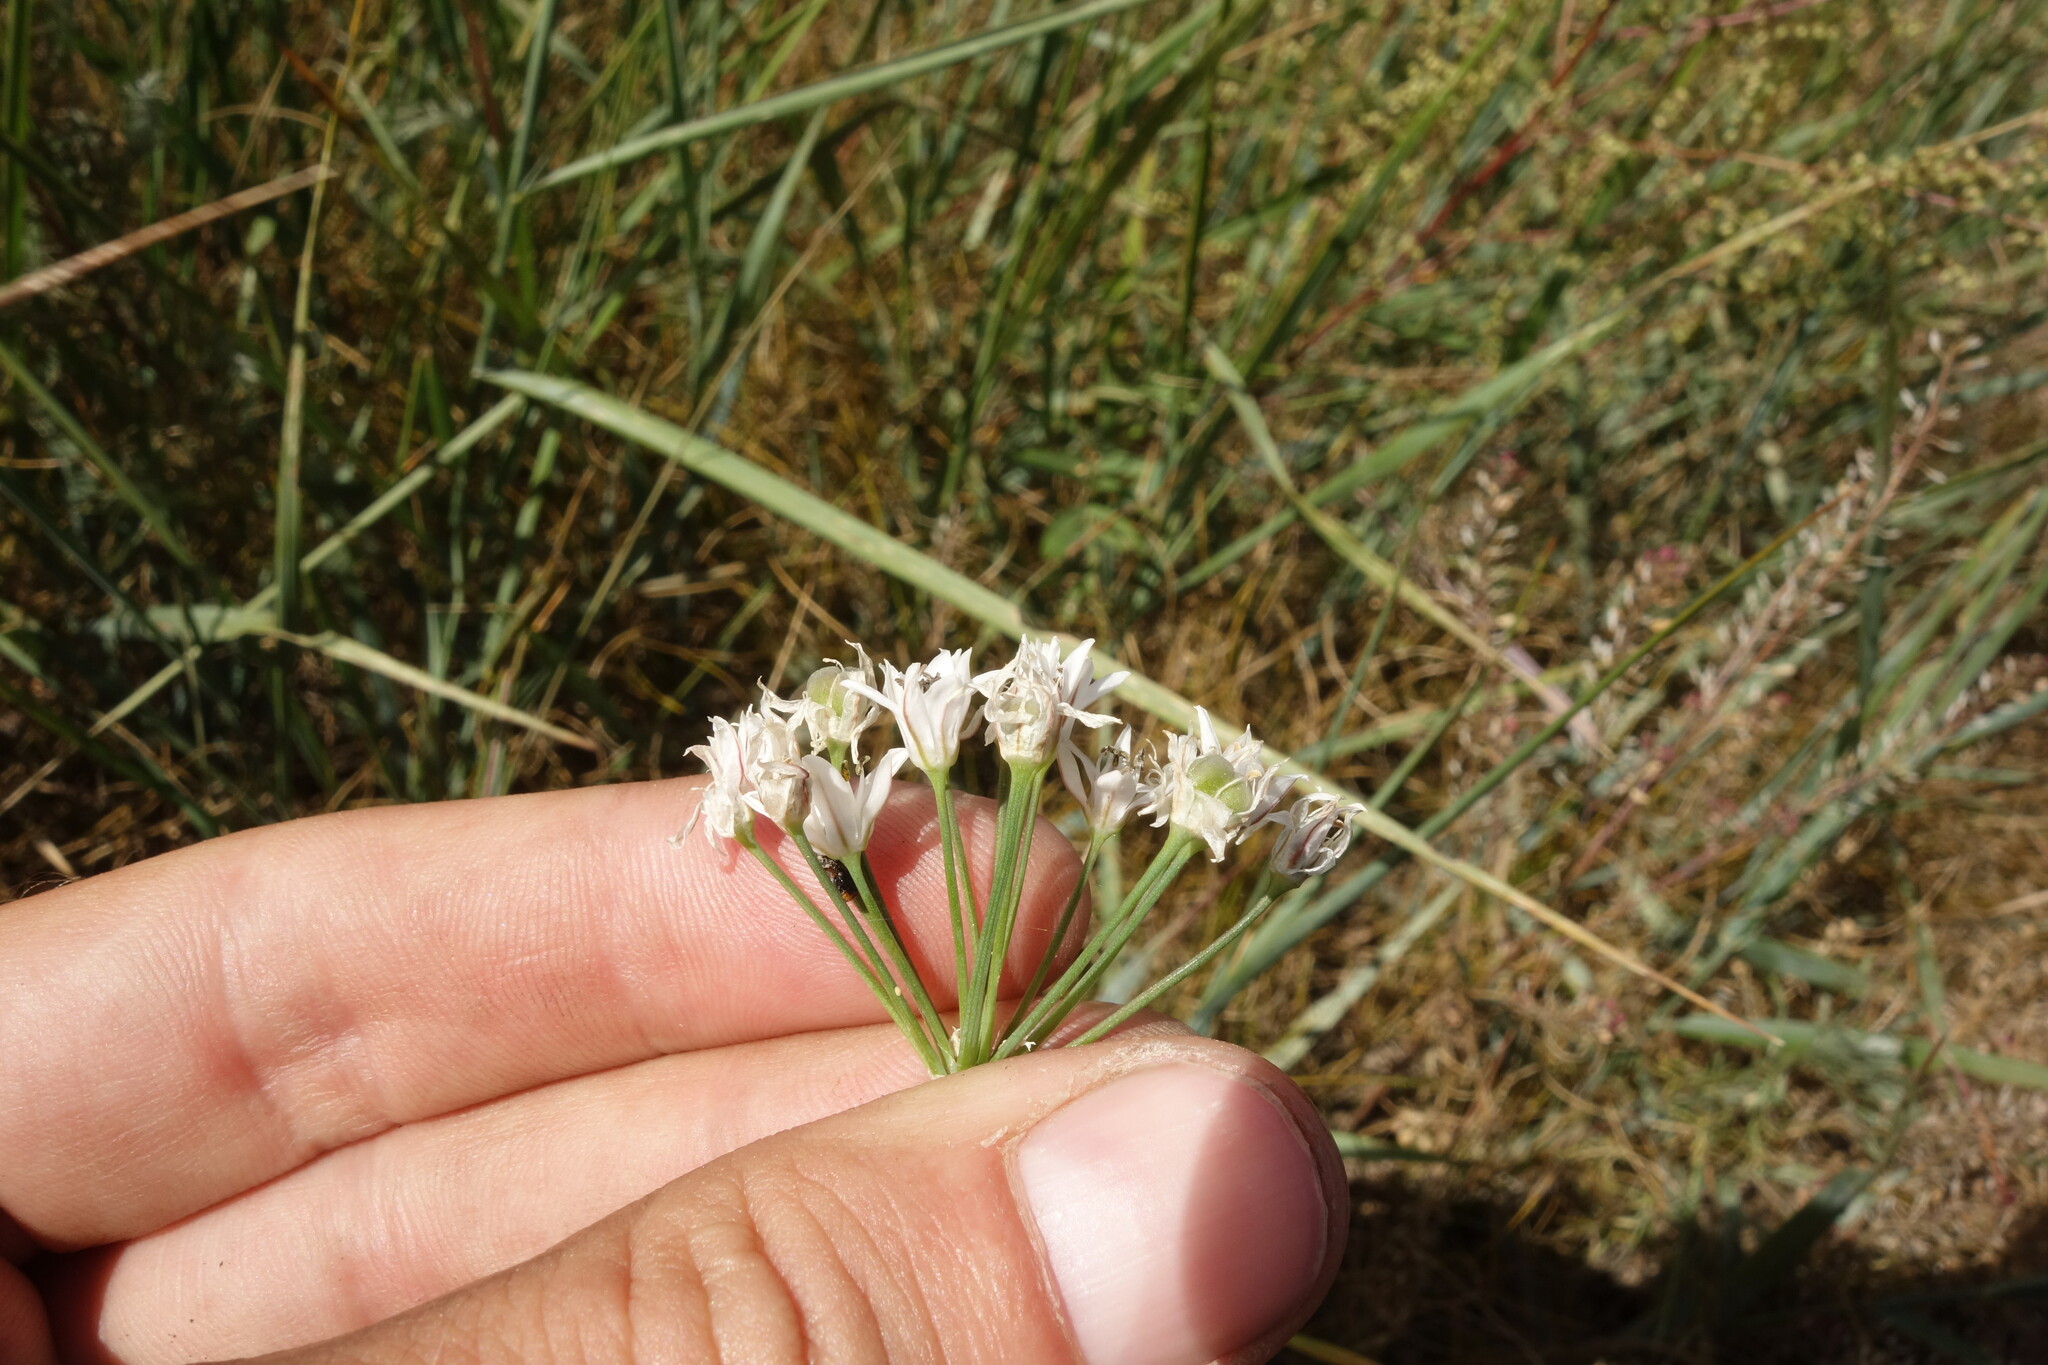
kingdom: Plantae
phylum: Tracheophyta
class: Liliopsida
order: Asparagales
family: Amaryllidaceae
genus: Allium
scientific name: Allium ramosum
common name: Fragrant garlic
